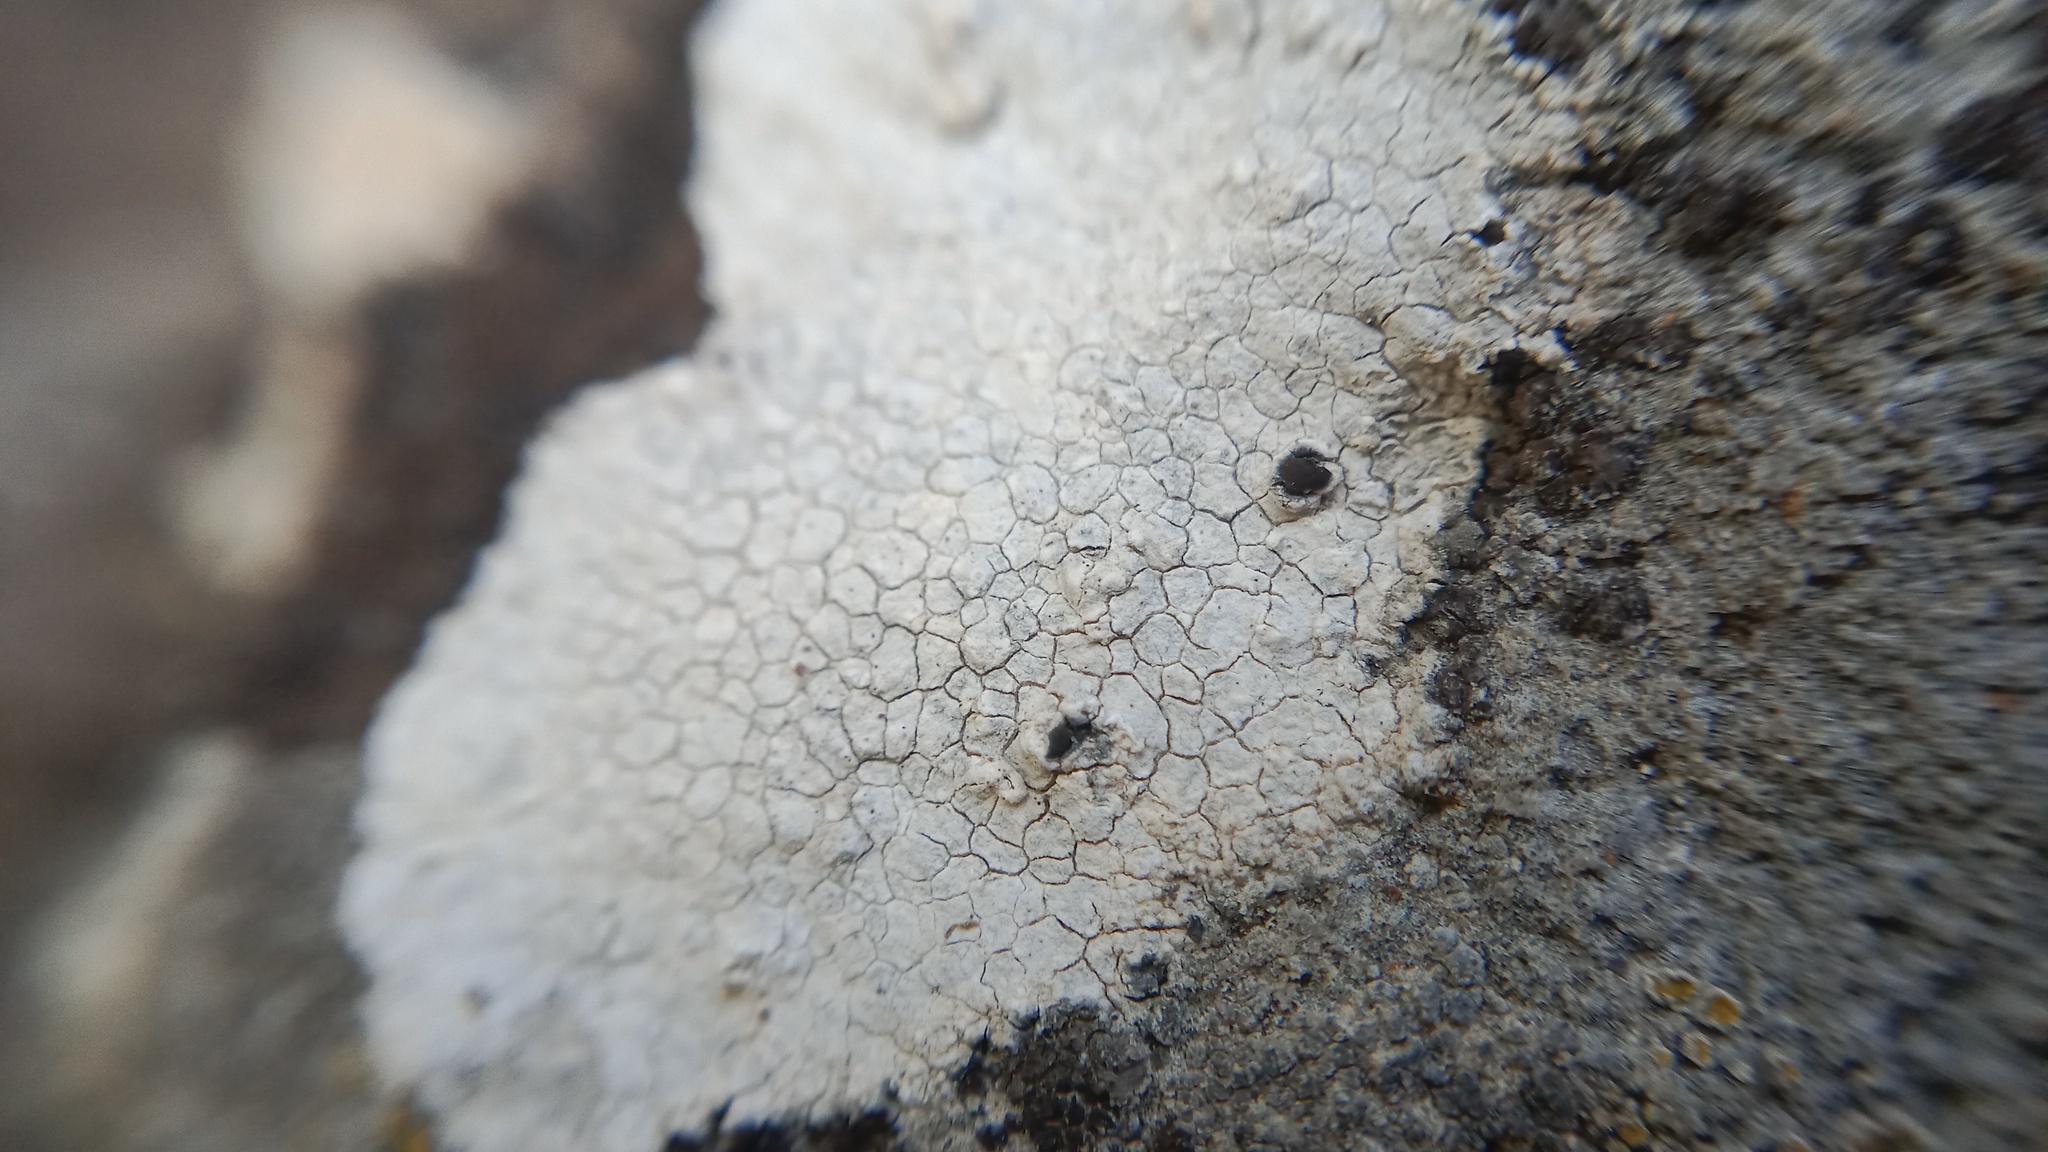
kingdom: Fungi
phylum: Ascomycota
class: Lecanoromycetes
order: Pertusariales
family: Megasporaceae
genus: Circinaria
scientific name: Circinaria calcarea
